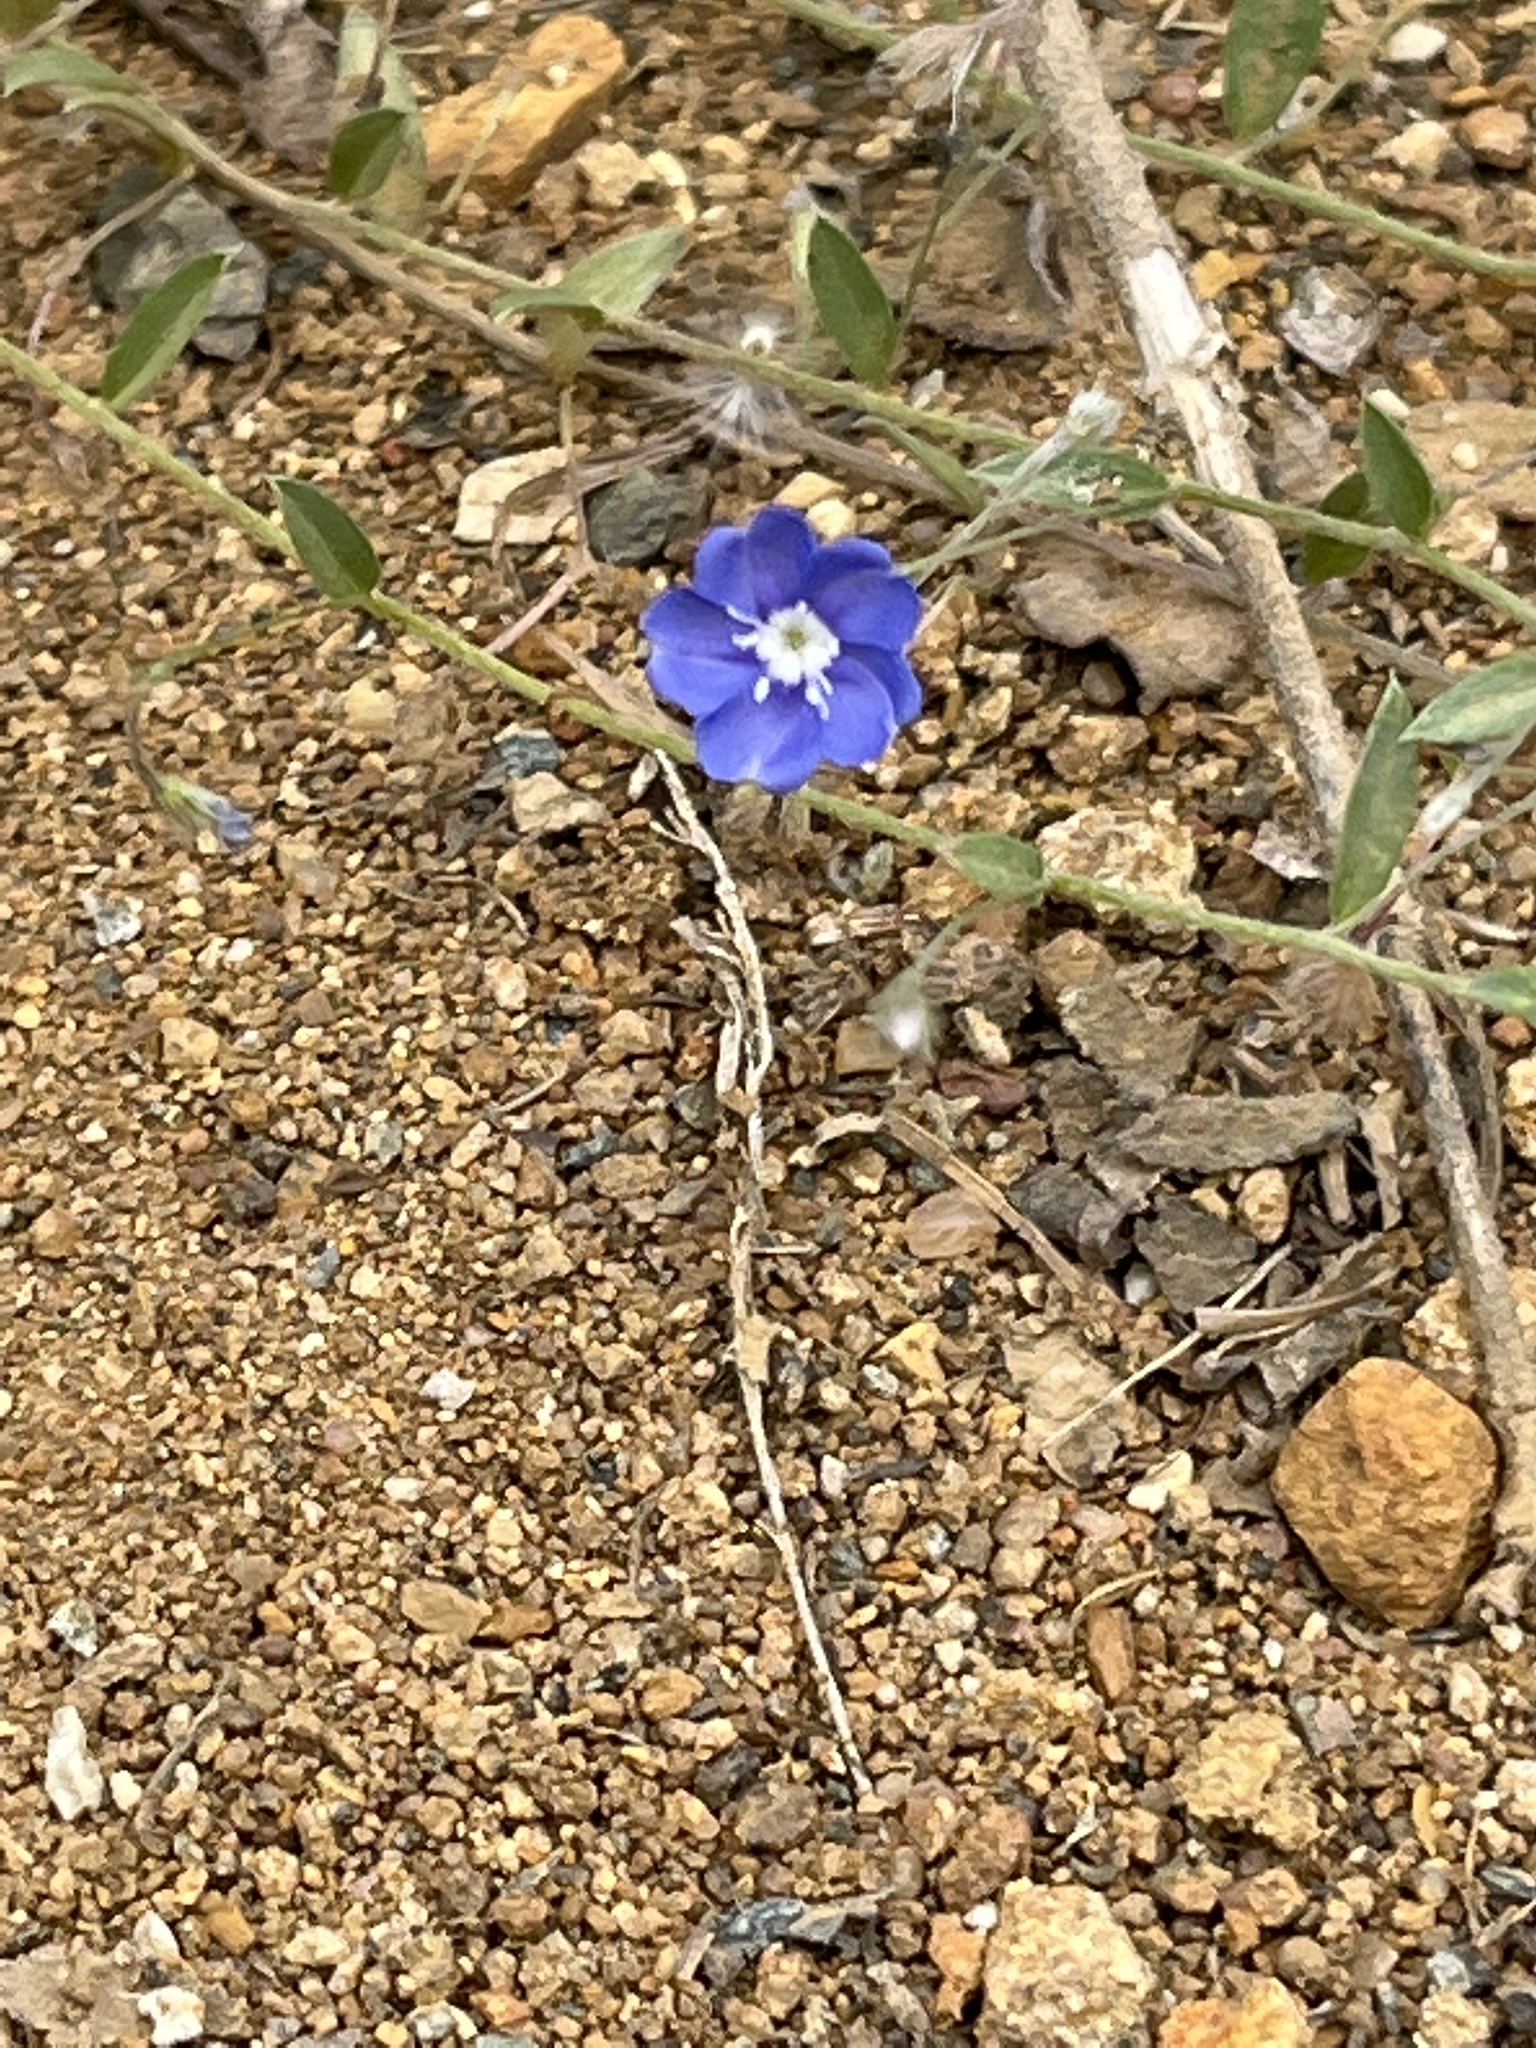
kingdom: Plantae
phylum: Tracheophyta
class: Magnoliopsida
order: Solanales
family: Convolvulaceae
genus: Evolvulus
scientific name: Evolvulus alsinoides
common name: Slender dwarf morning-glory
